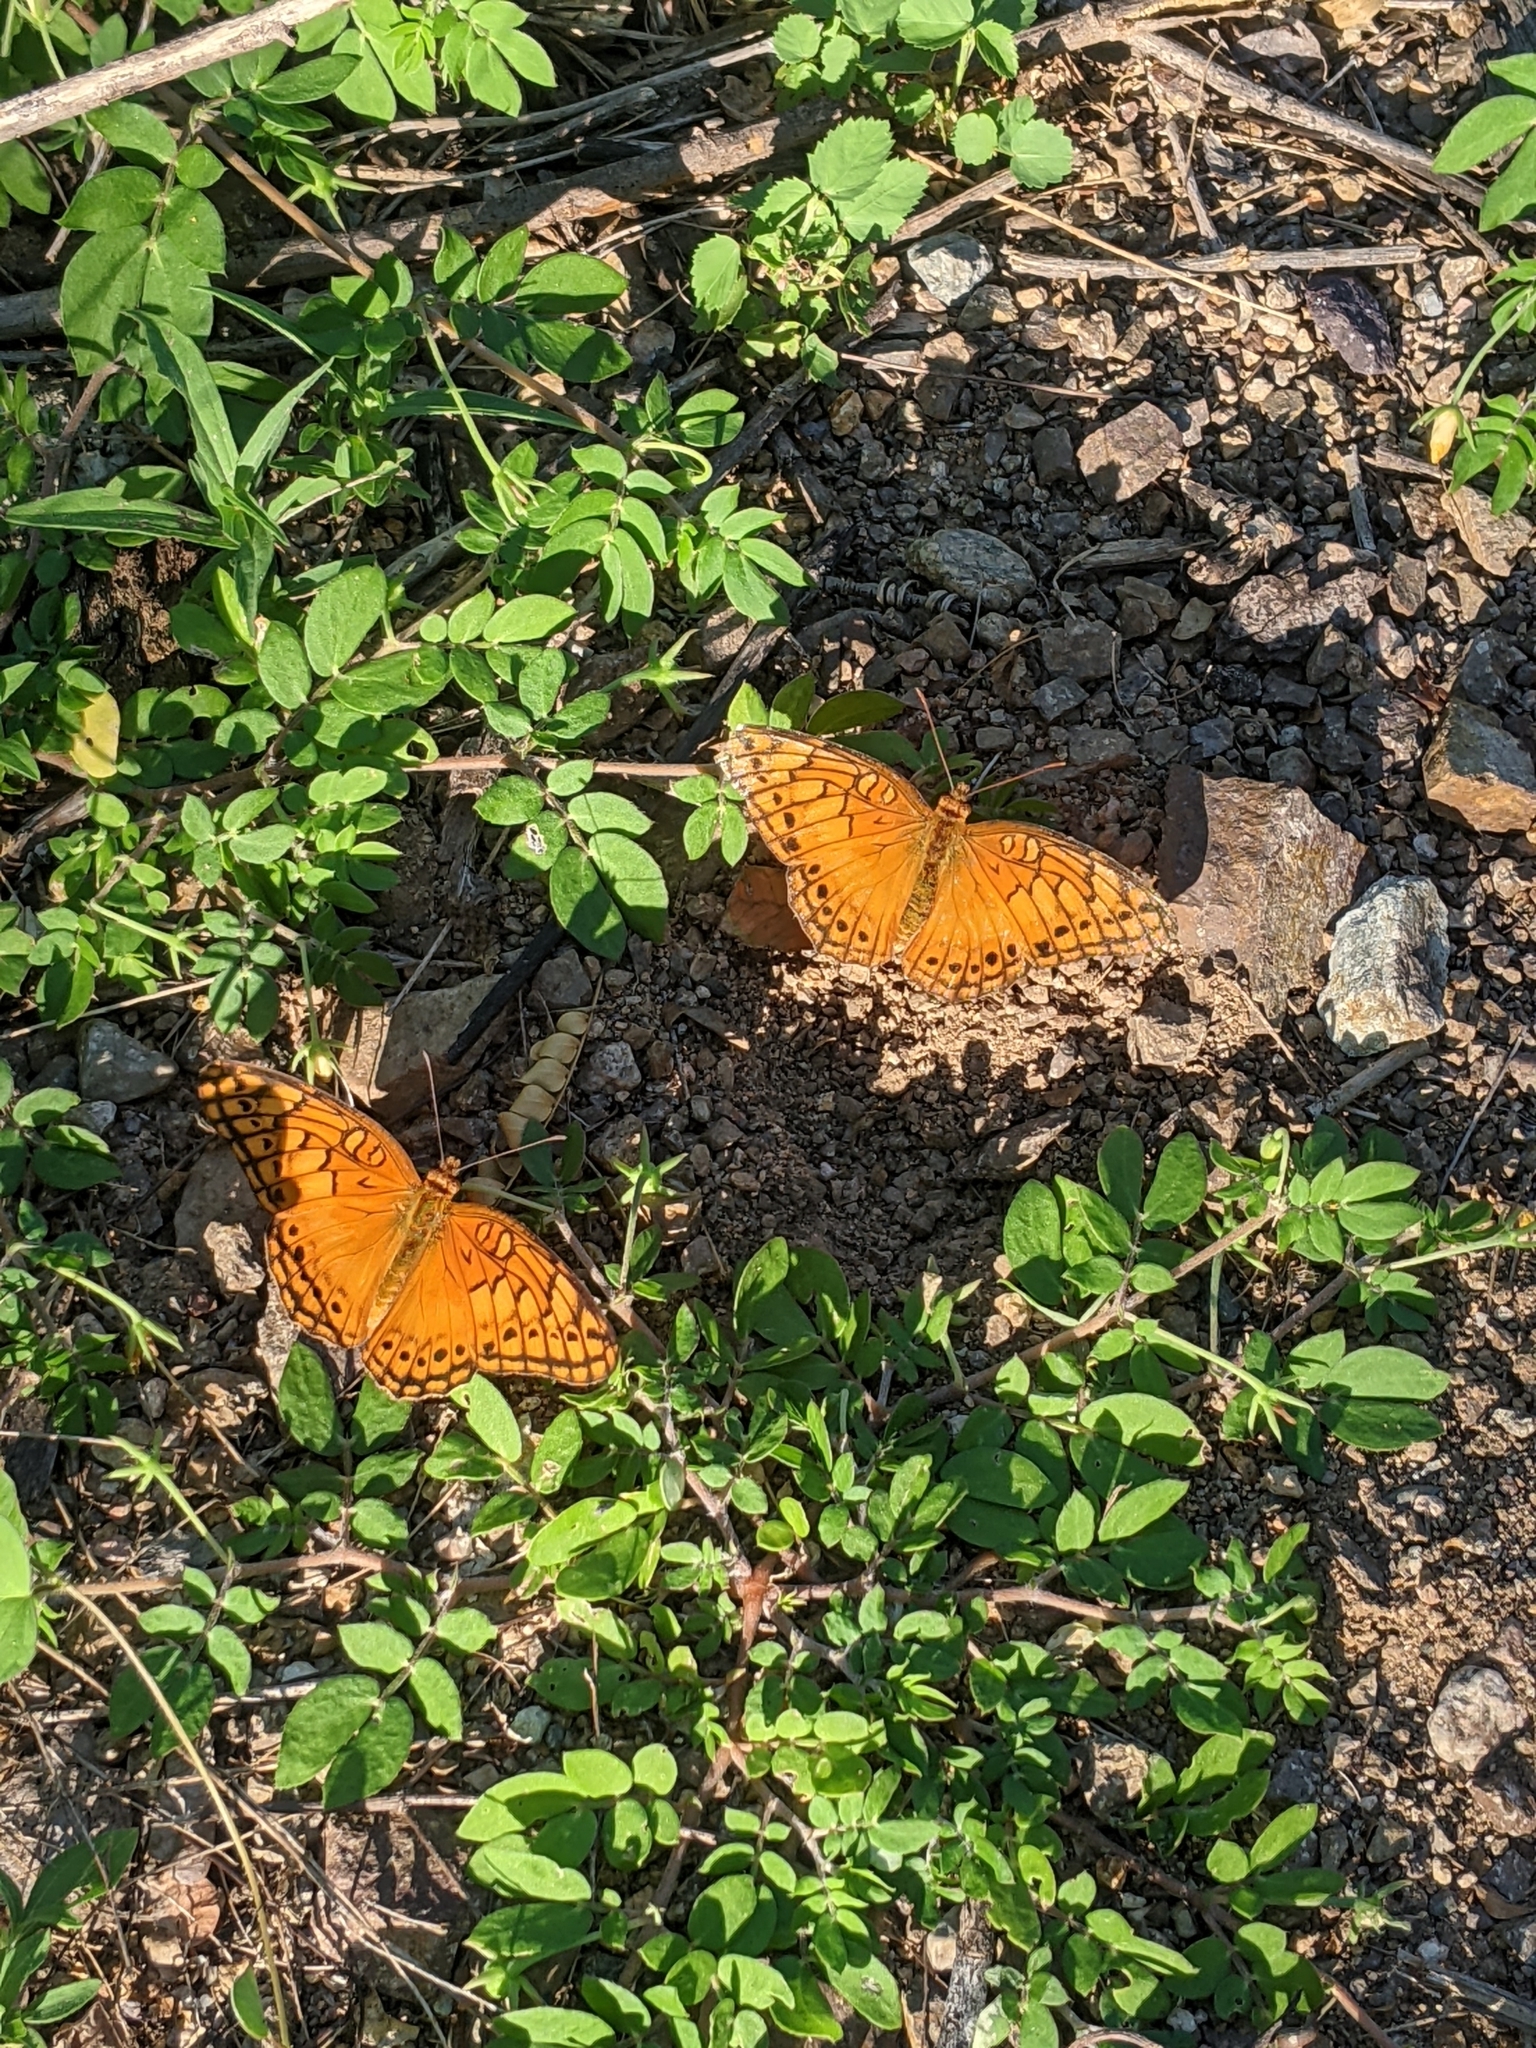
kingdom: Animalia
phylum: Arthropoda
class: Insecta
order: Lepidoptera
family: Nymphalidae
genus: Euptoieta
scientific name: Euptoieta hegesia
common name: Mexican fritillary
